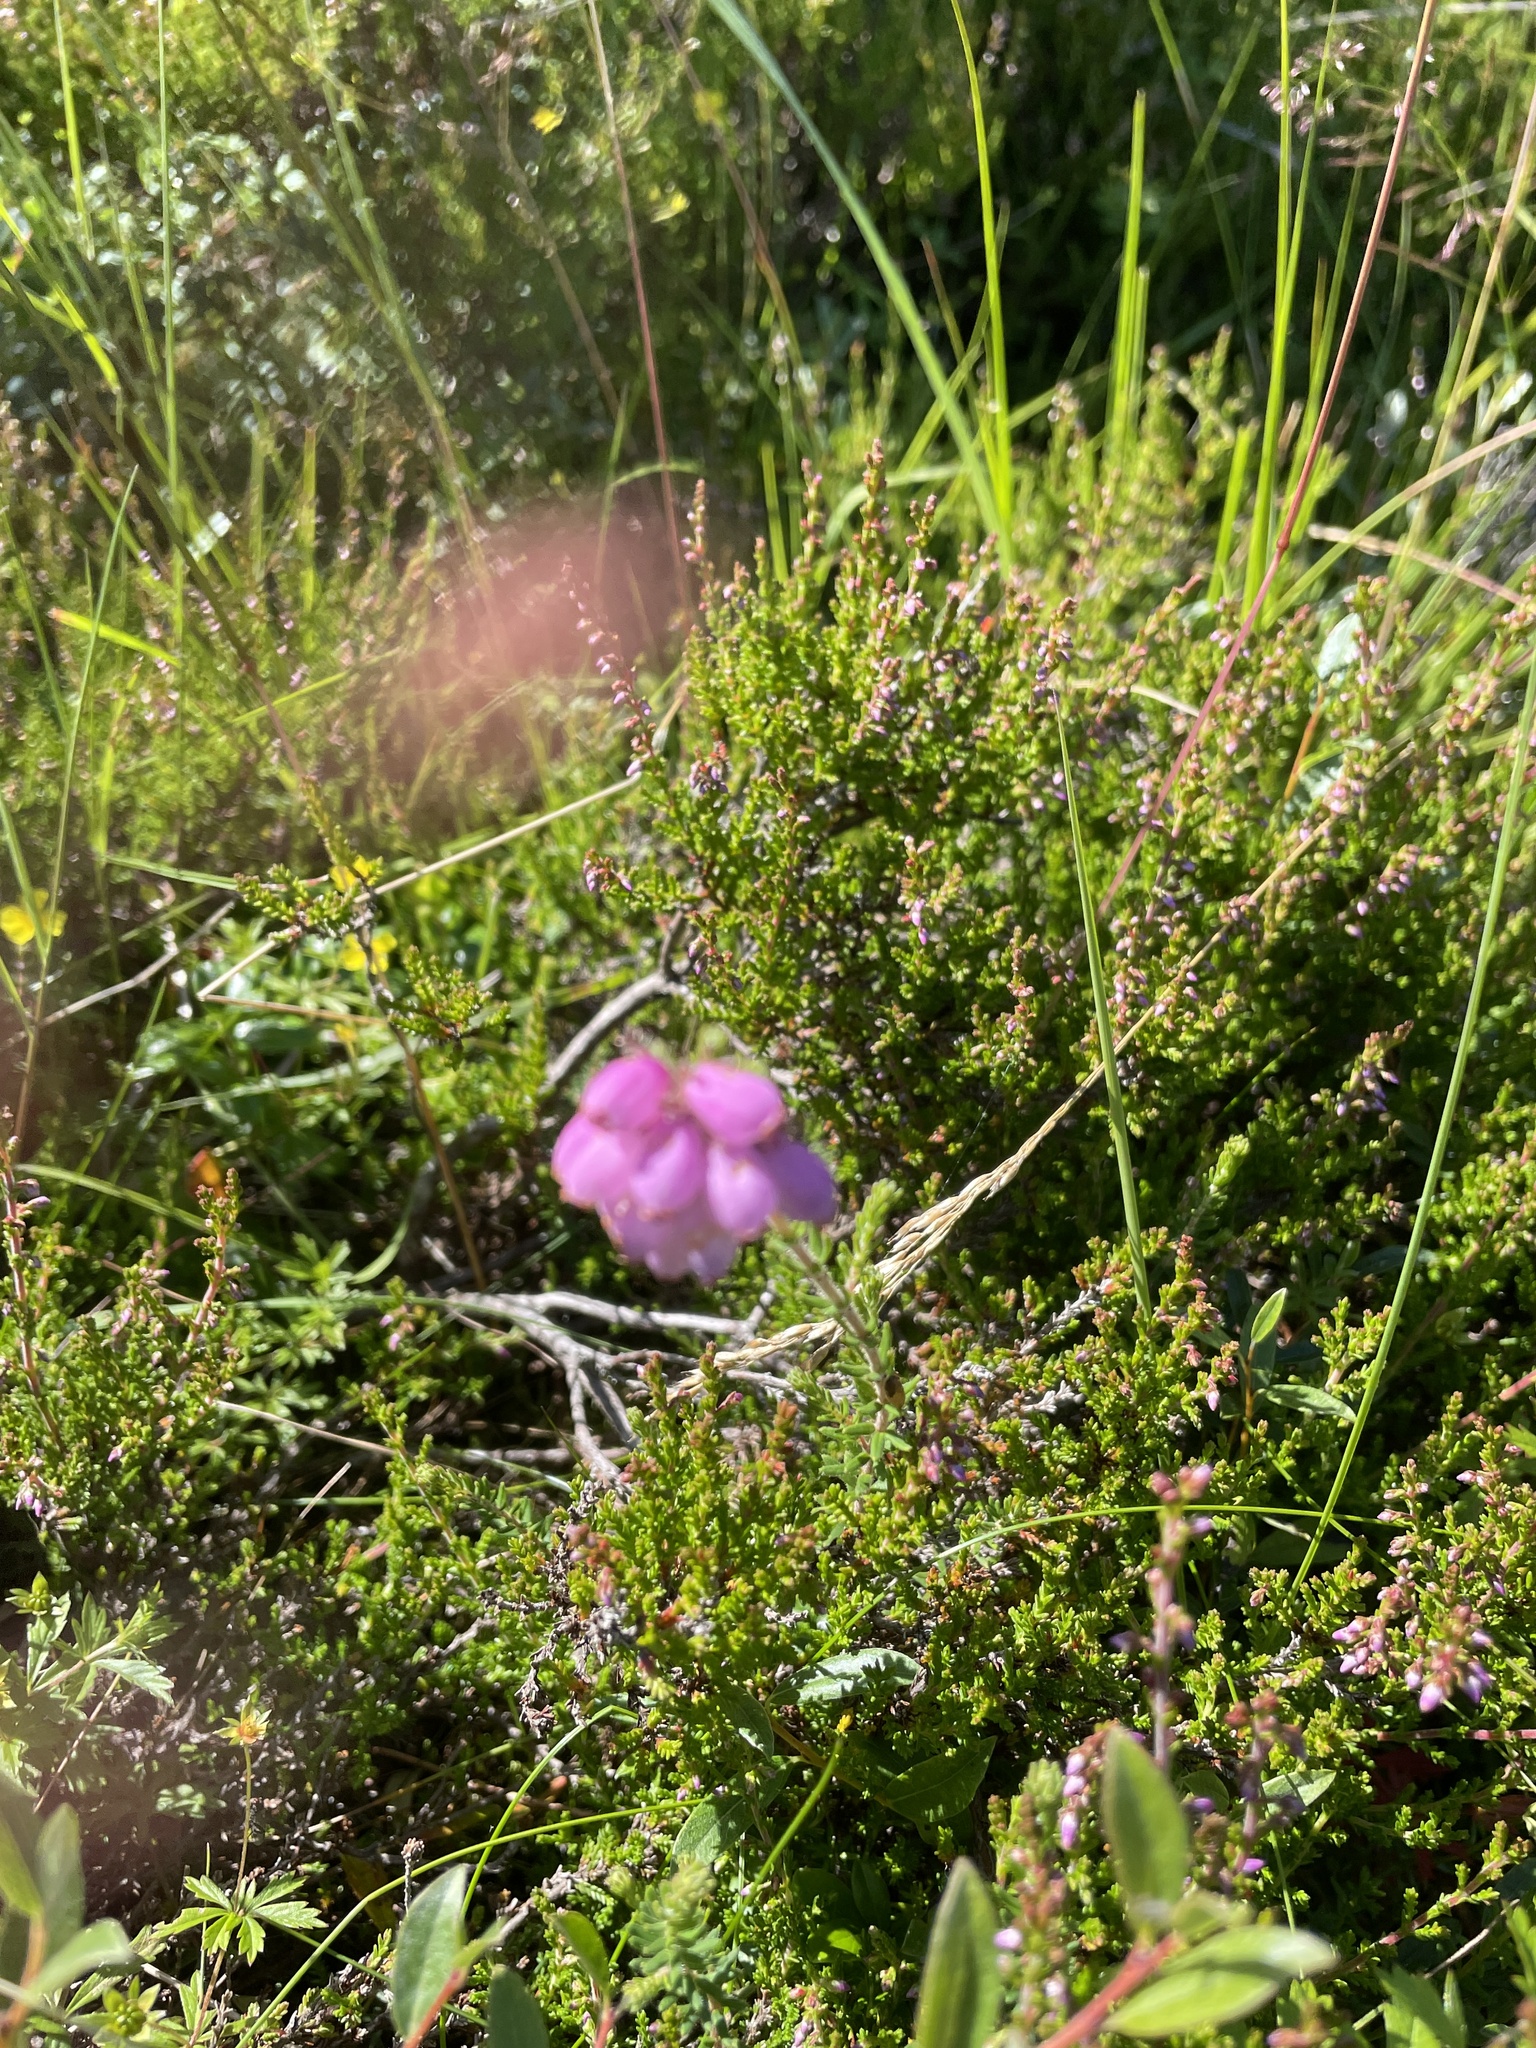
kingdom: Plantae
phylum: Tracheophyta
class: Magnoliopsida
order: Ericales
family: Ericaceae
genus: Erica
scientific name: Erica tetralix
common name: Cross-leaved heath
